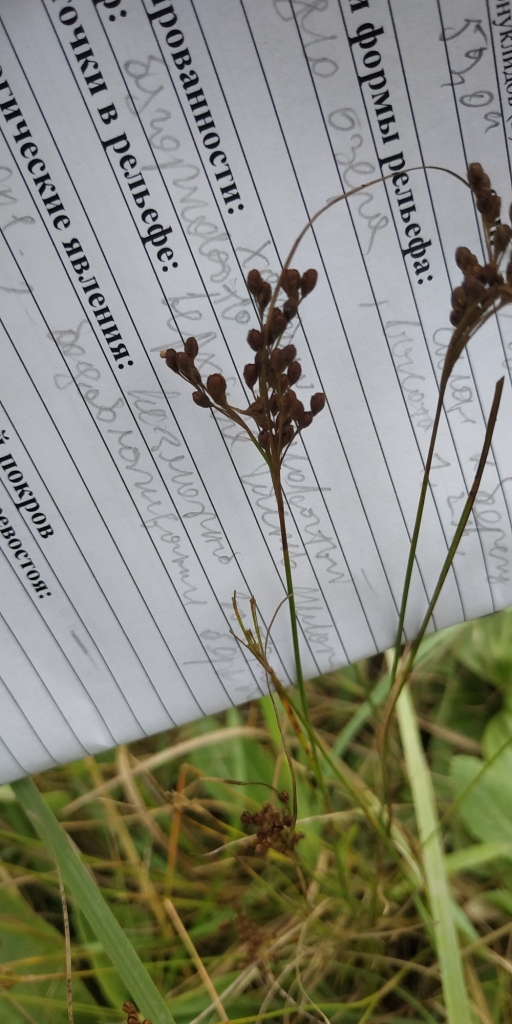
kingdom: Plantae
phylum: Tracheophyta
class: Liliopsida
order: Poales
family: Juncaceae
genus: Juncus
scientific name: Juncus compressus
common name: Round-fruited rush
